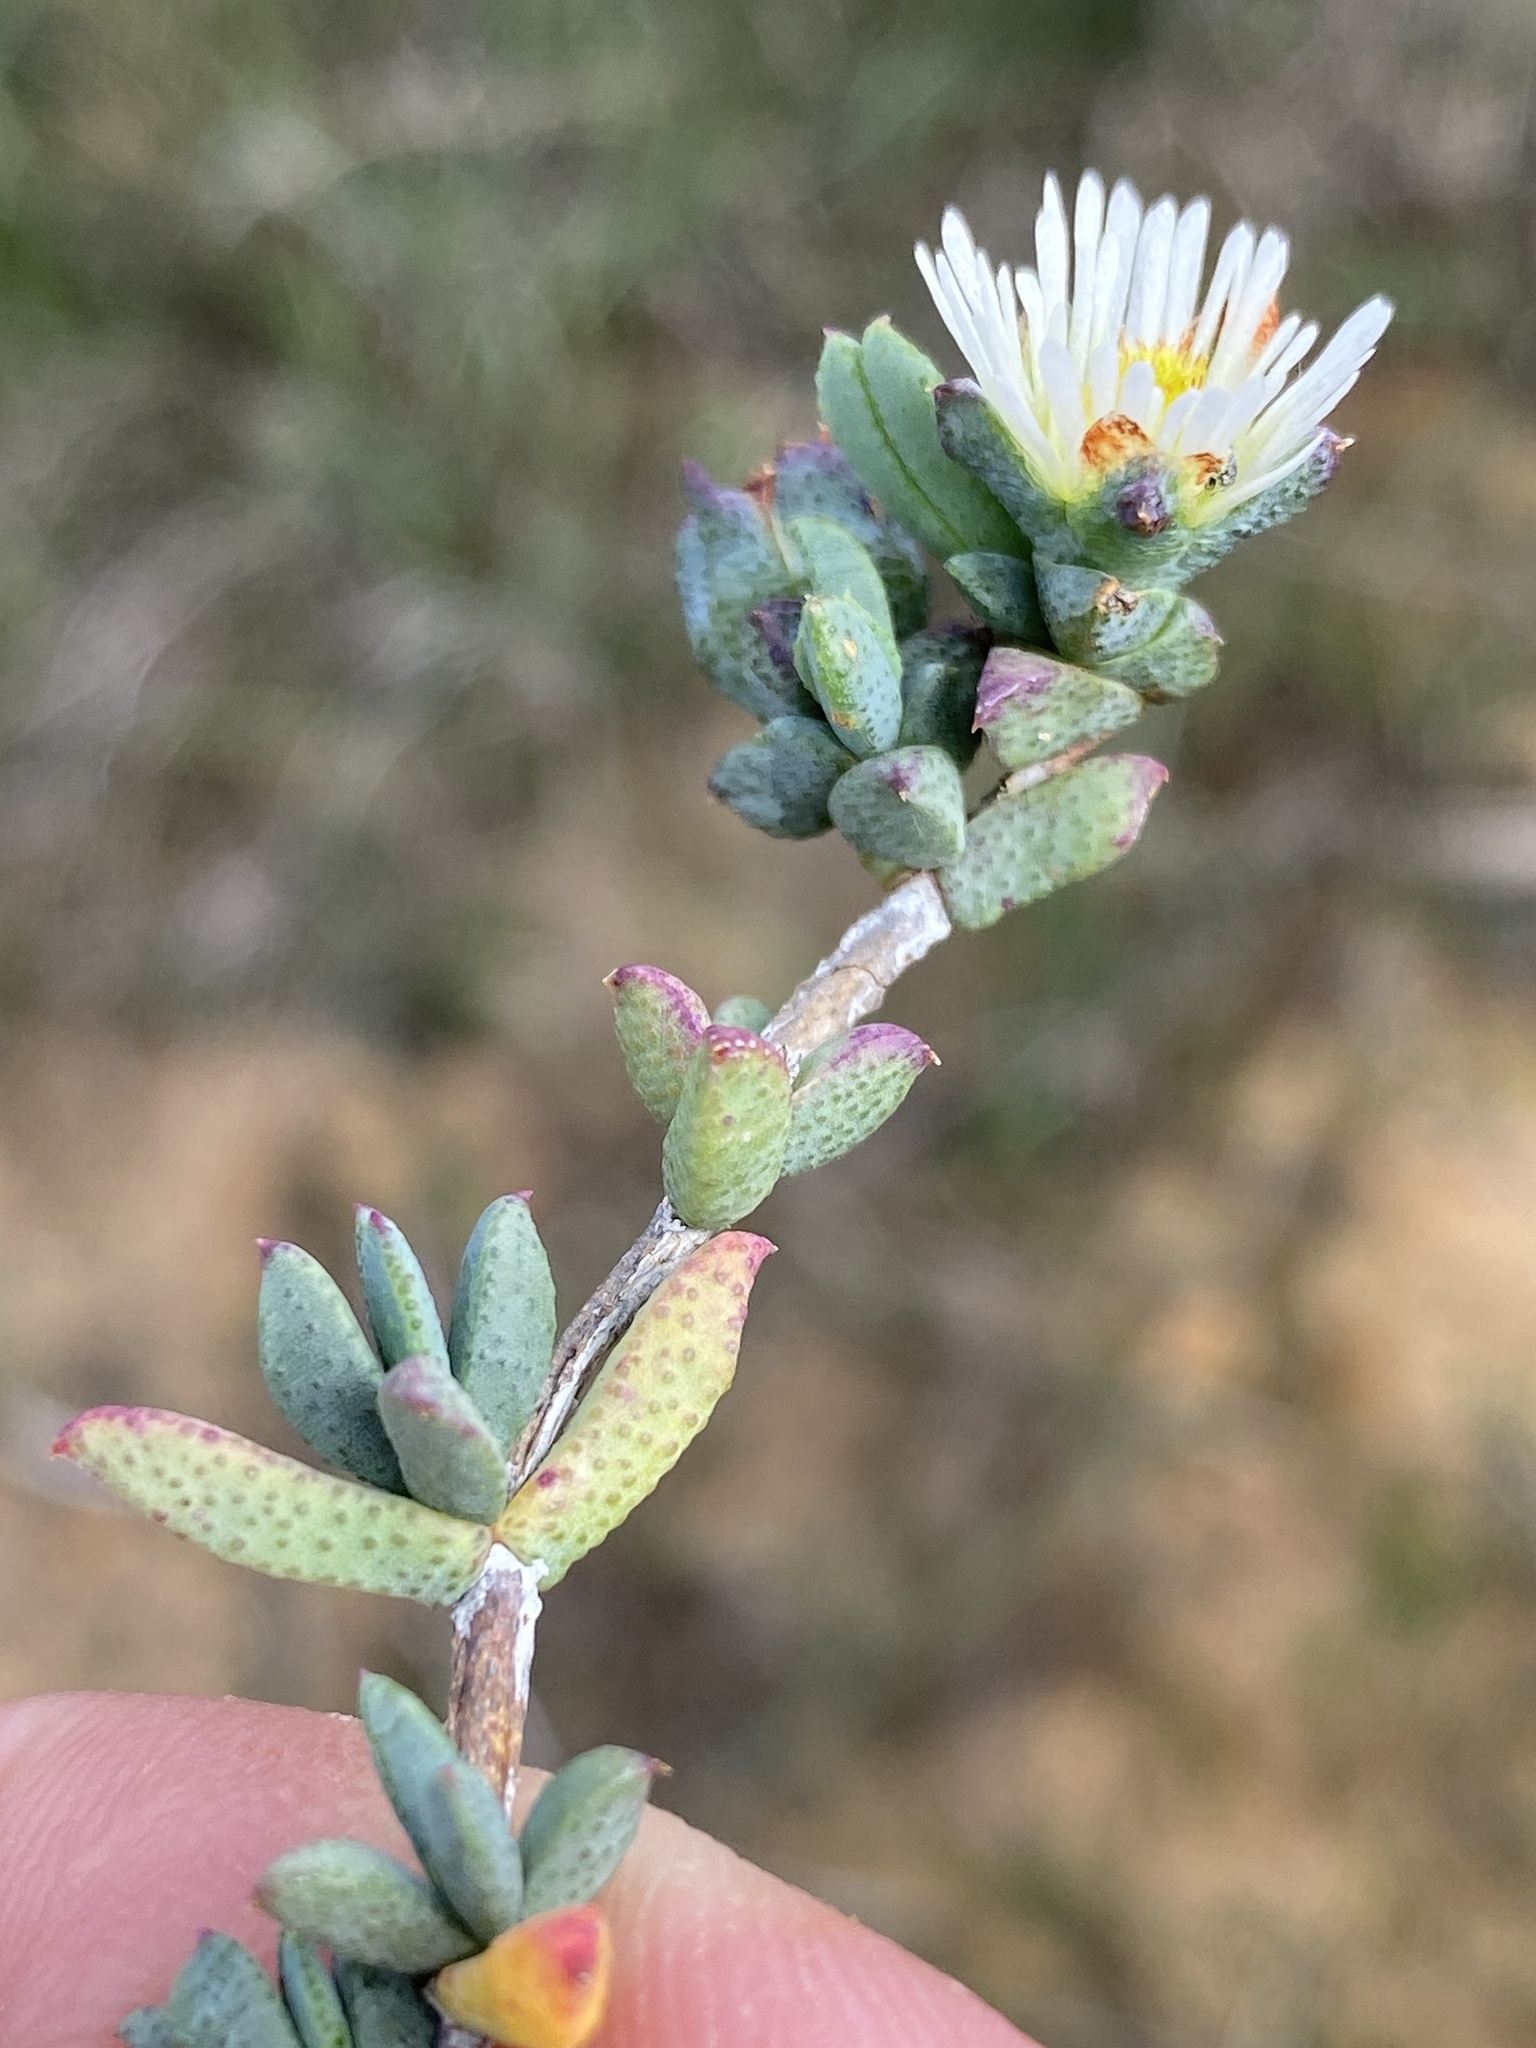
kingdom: Plantae
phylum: Tracheophyta
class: Magnoliopsida
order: Caryophyllales
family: Aizoaceae
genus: Erepsia
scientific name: Erepsia hallii
